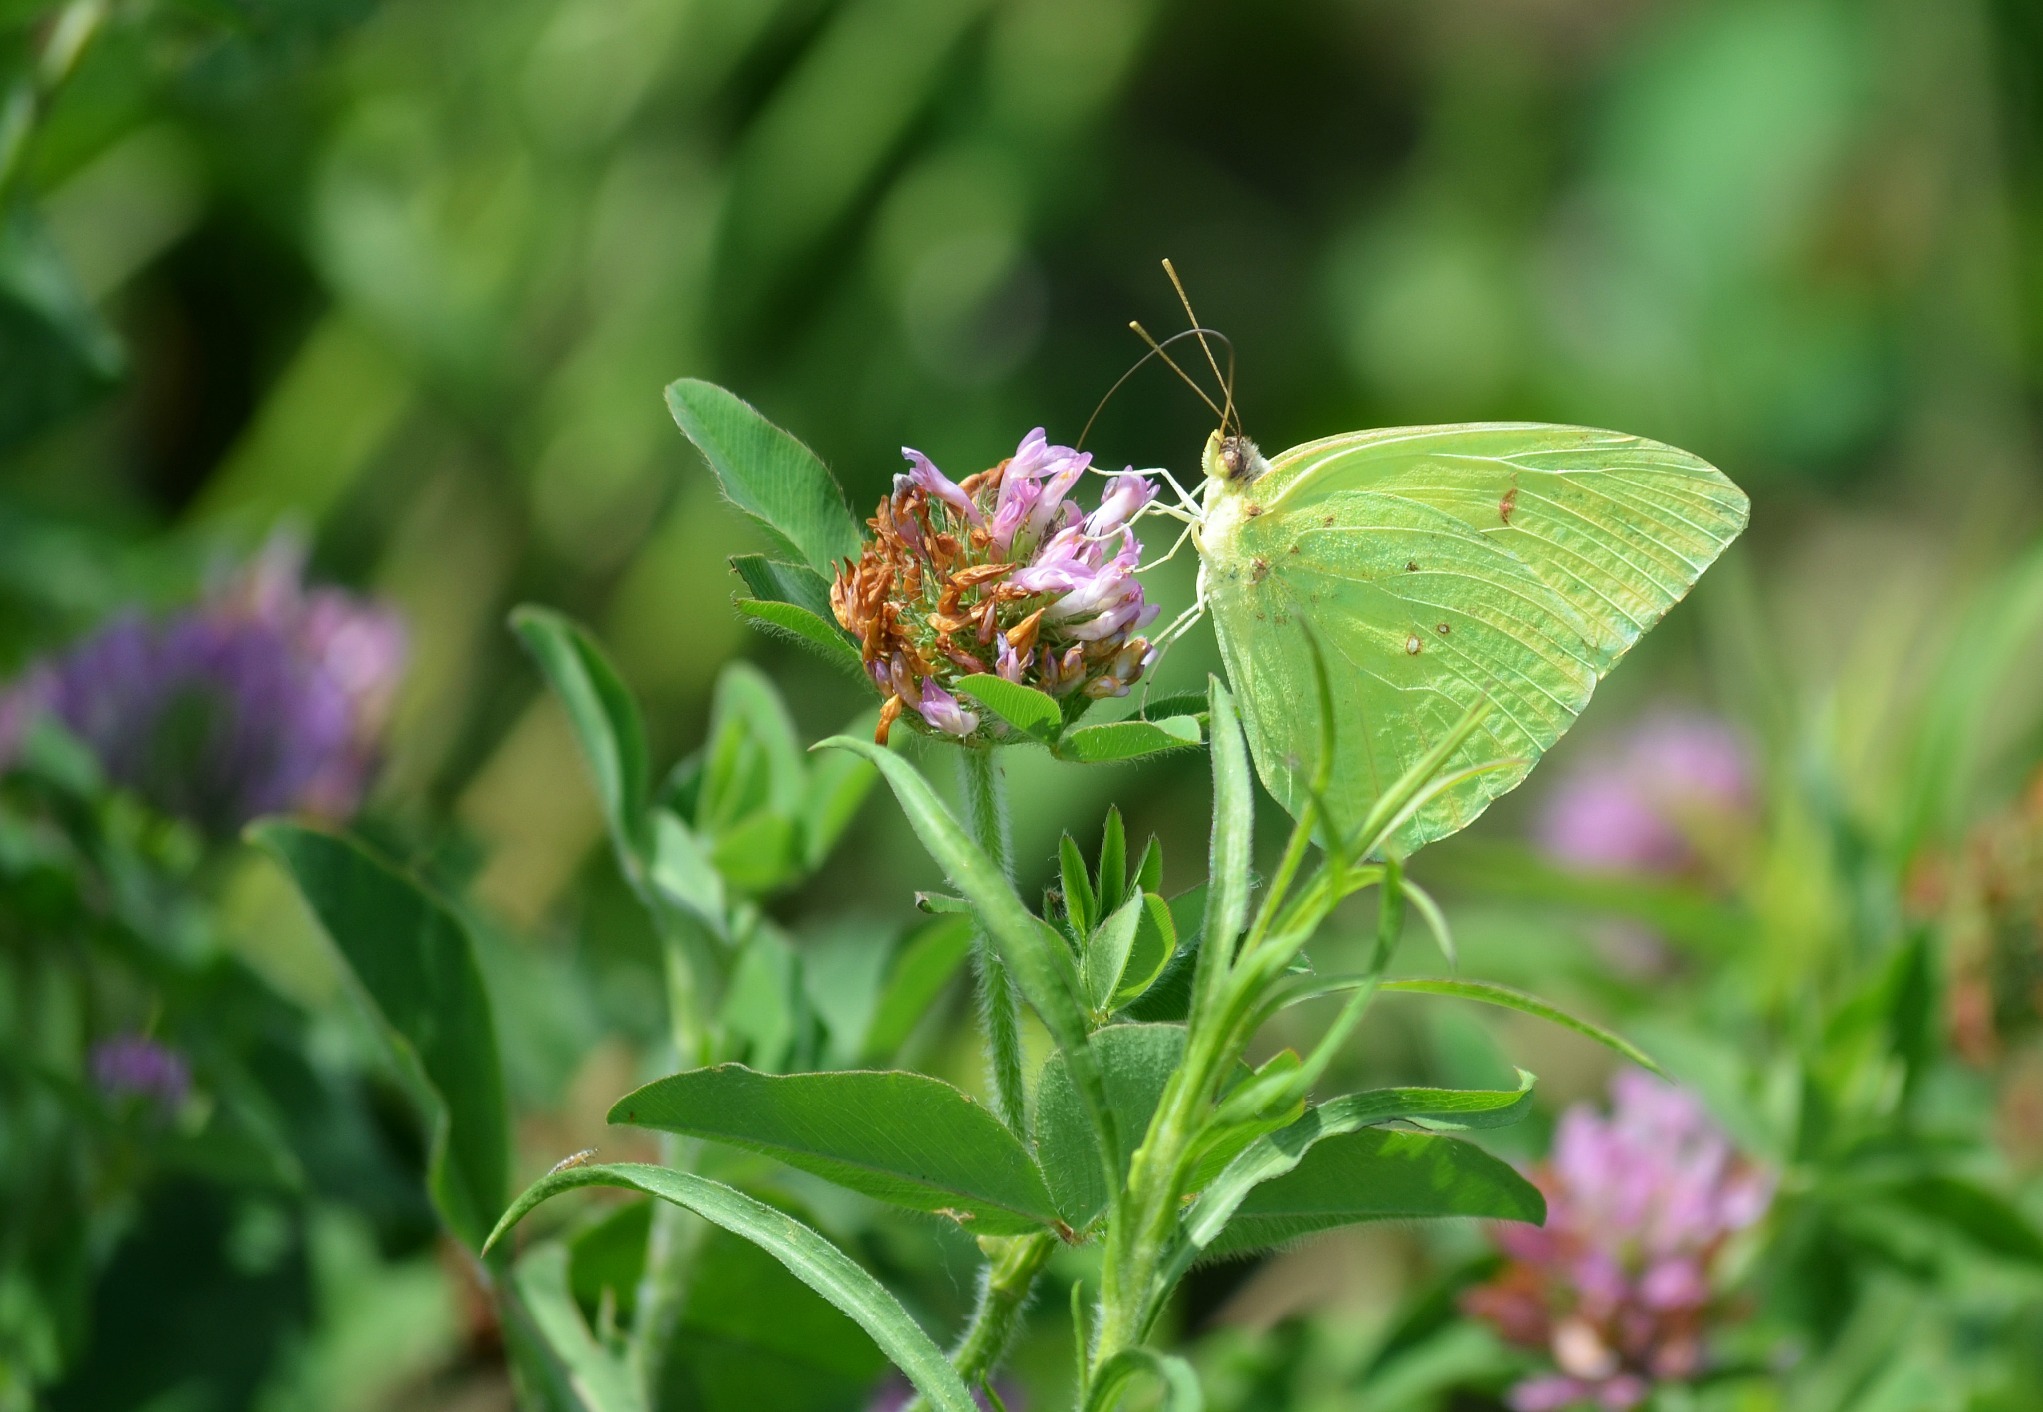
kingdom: Animalia
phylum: Arthropoda
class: Insecta
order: Lepidoptera
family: Pieridae
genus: Phoebis
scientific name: Phoebis sennae
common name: Cloudless sulphur
